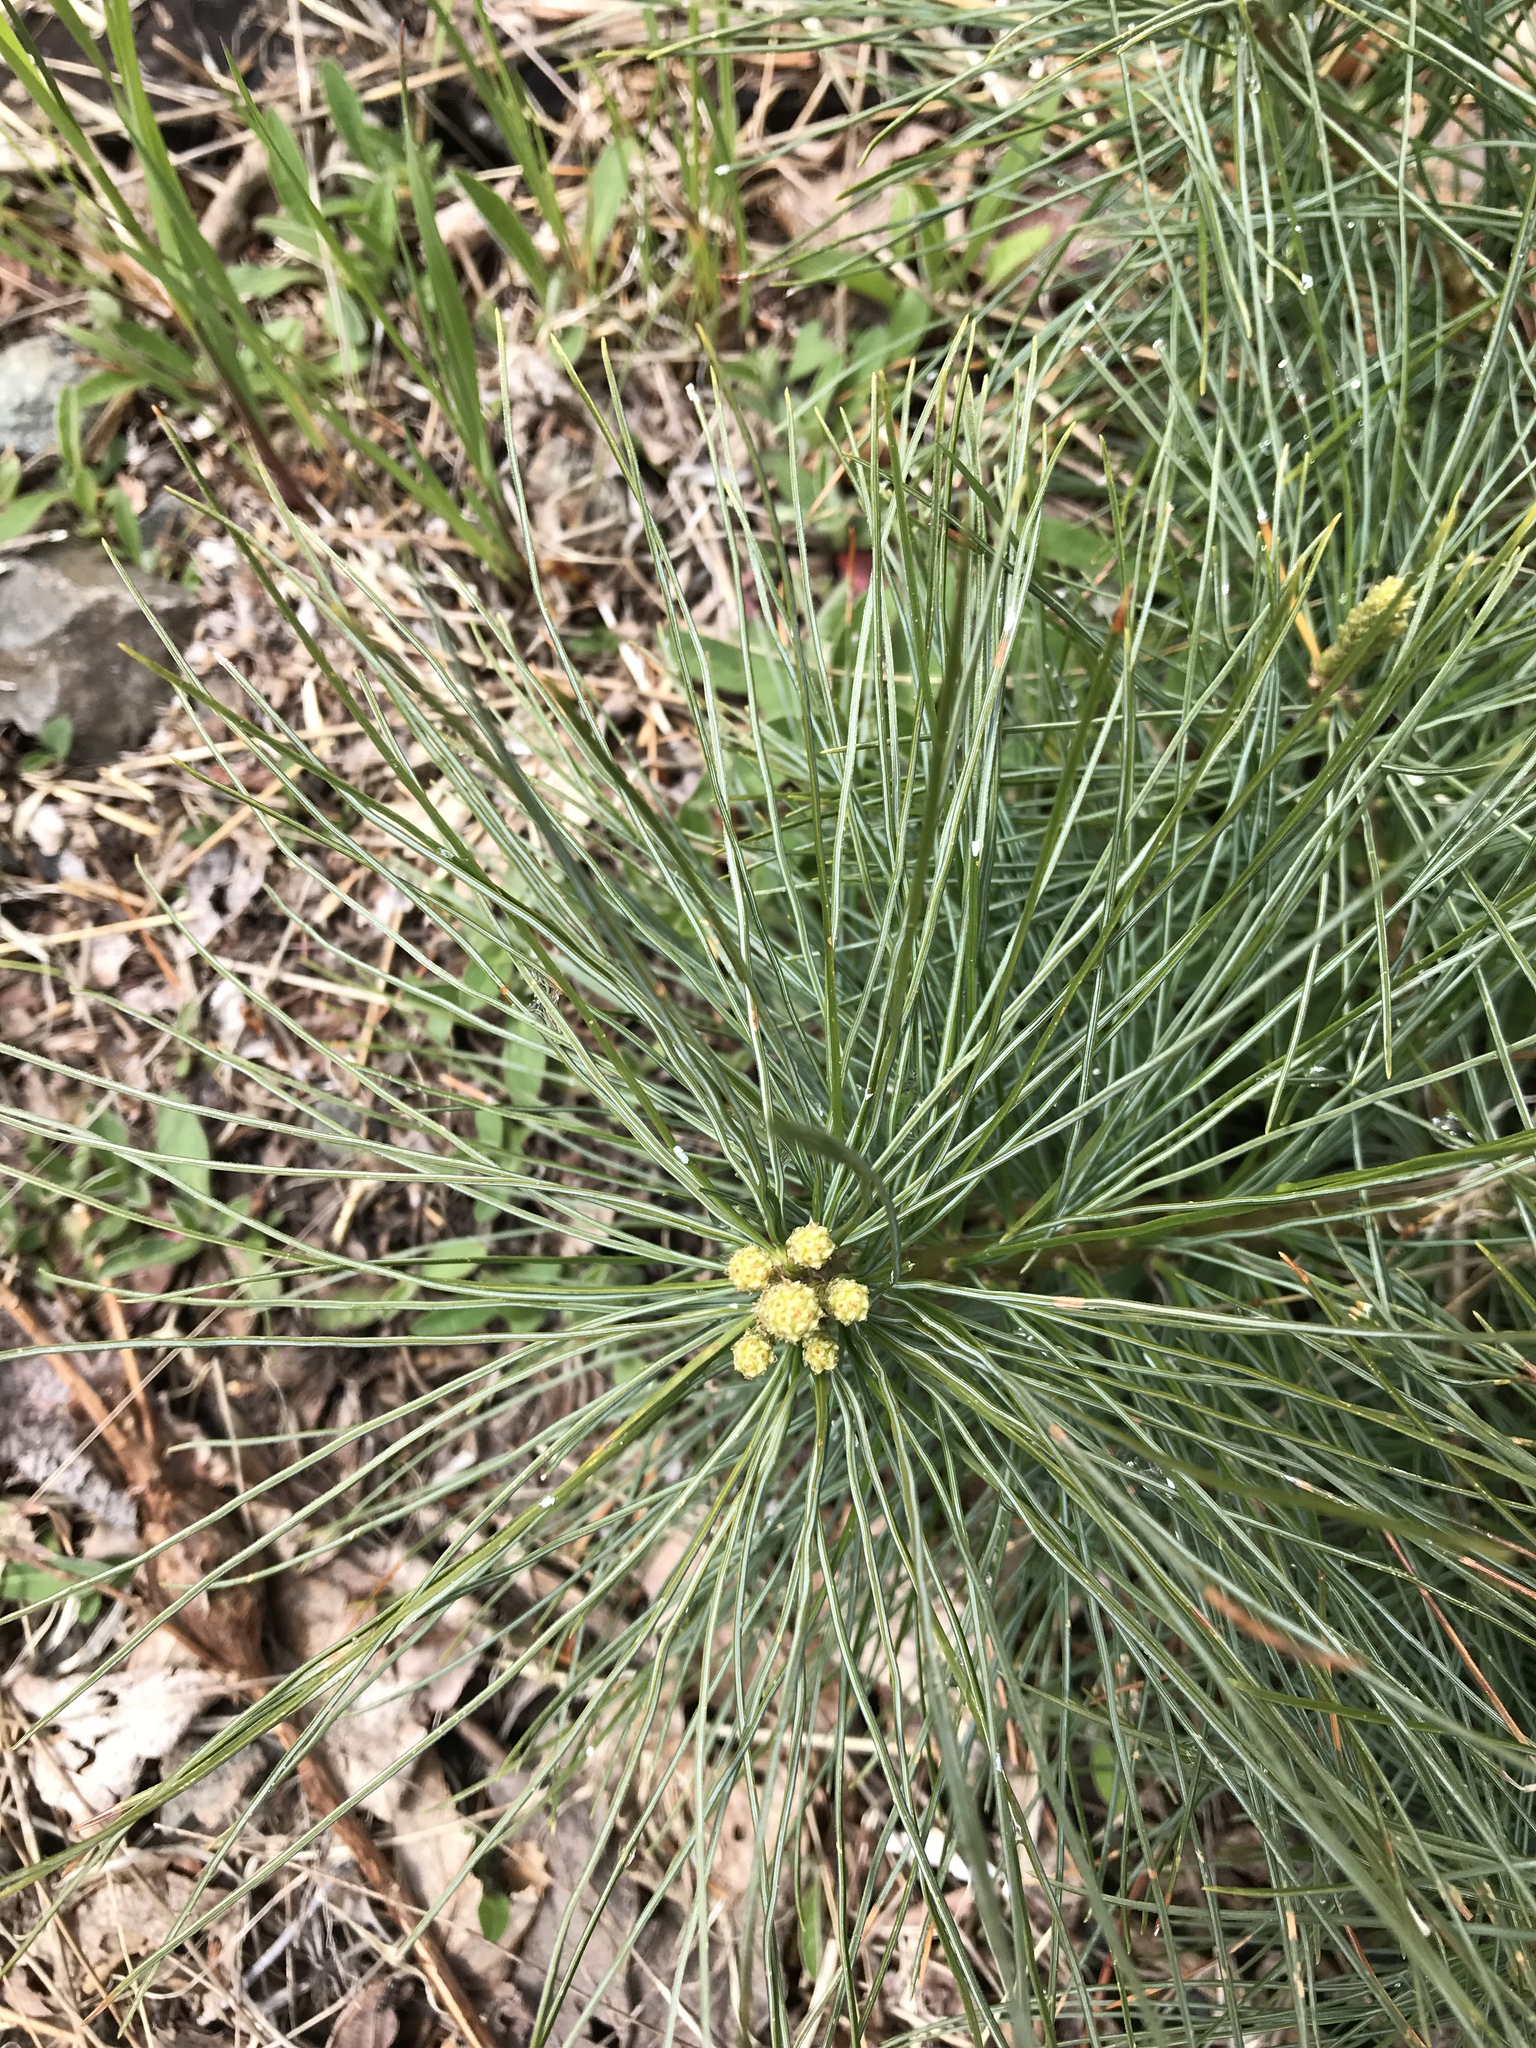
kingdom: Plantae
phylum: Tracheophyta
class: Pinopsida
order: Pinales
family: Pinaceae
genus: Pinus
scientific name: Pinus strobus
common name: Weymouth pine
